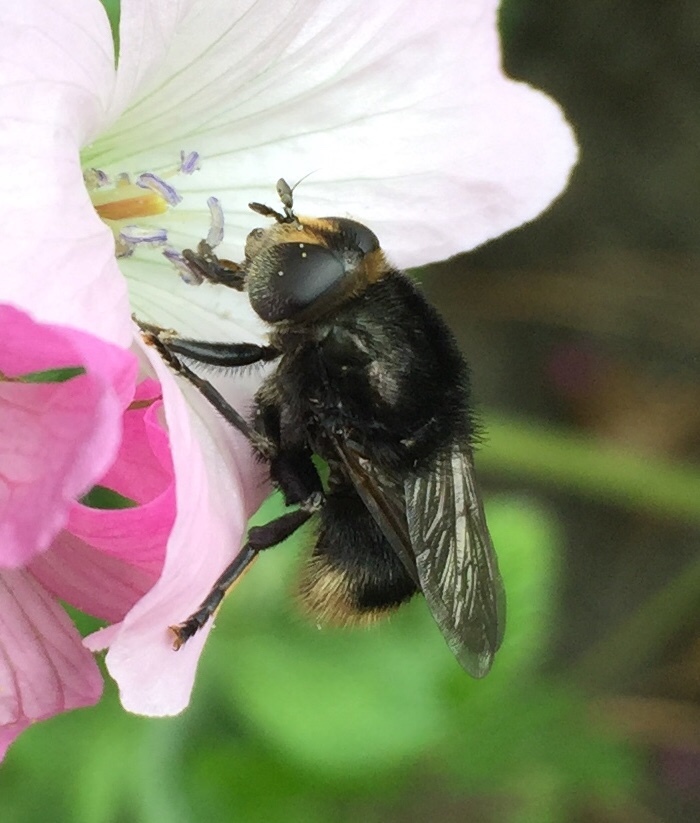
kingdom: Animalia
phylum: Arthropoda
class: Insecta
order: Diptera
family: Syrphidae
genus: Merodon
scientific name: Merodon equestris
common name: Greater bulb-fly
